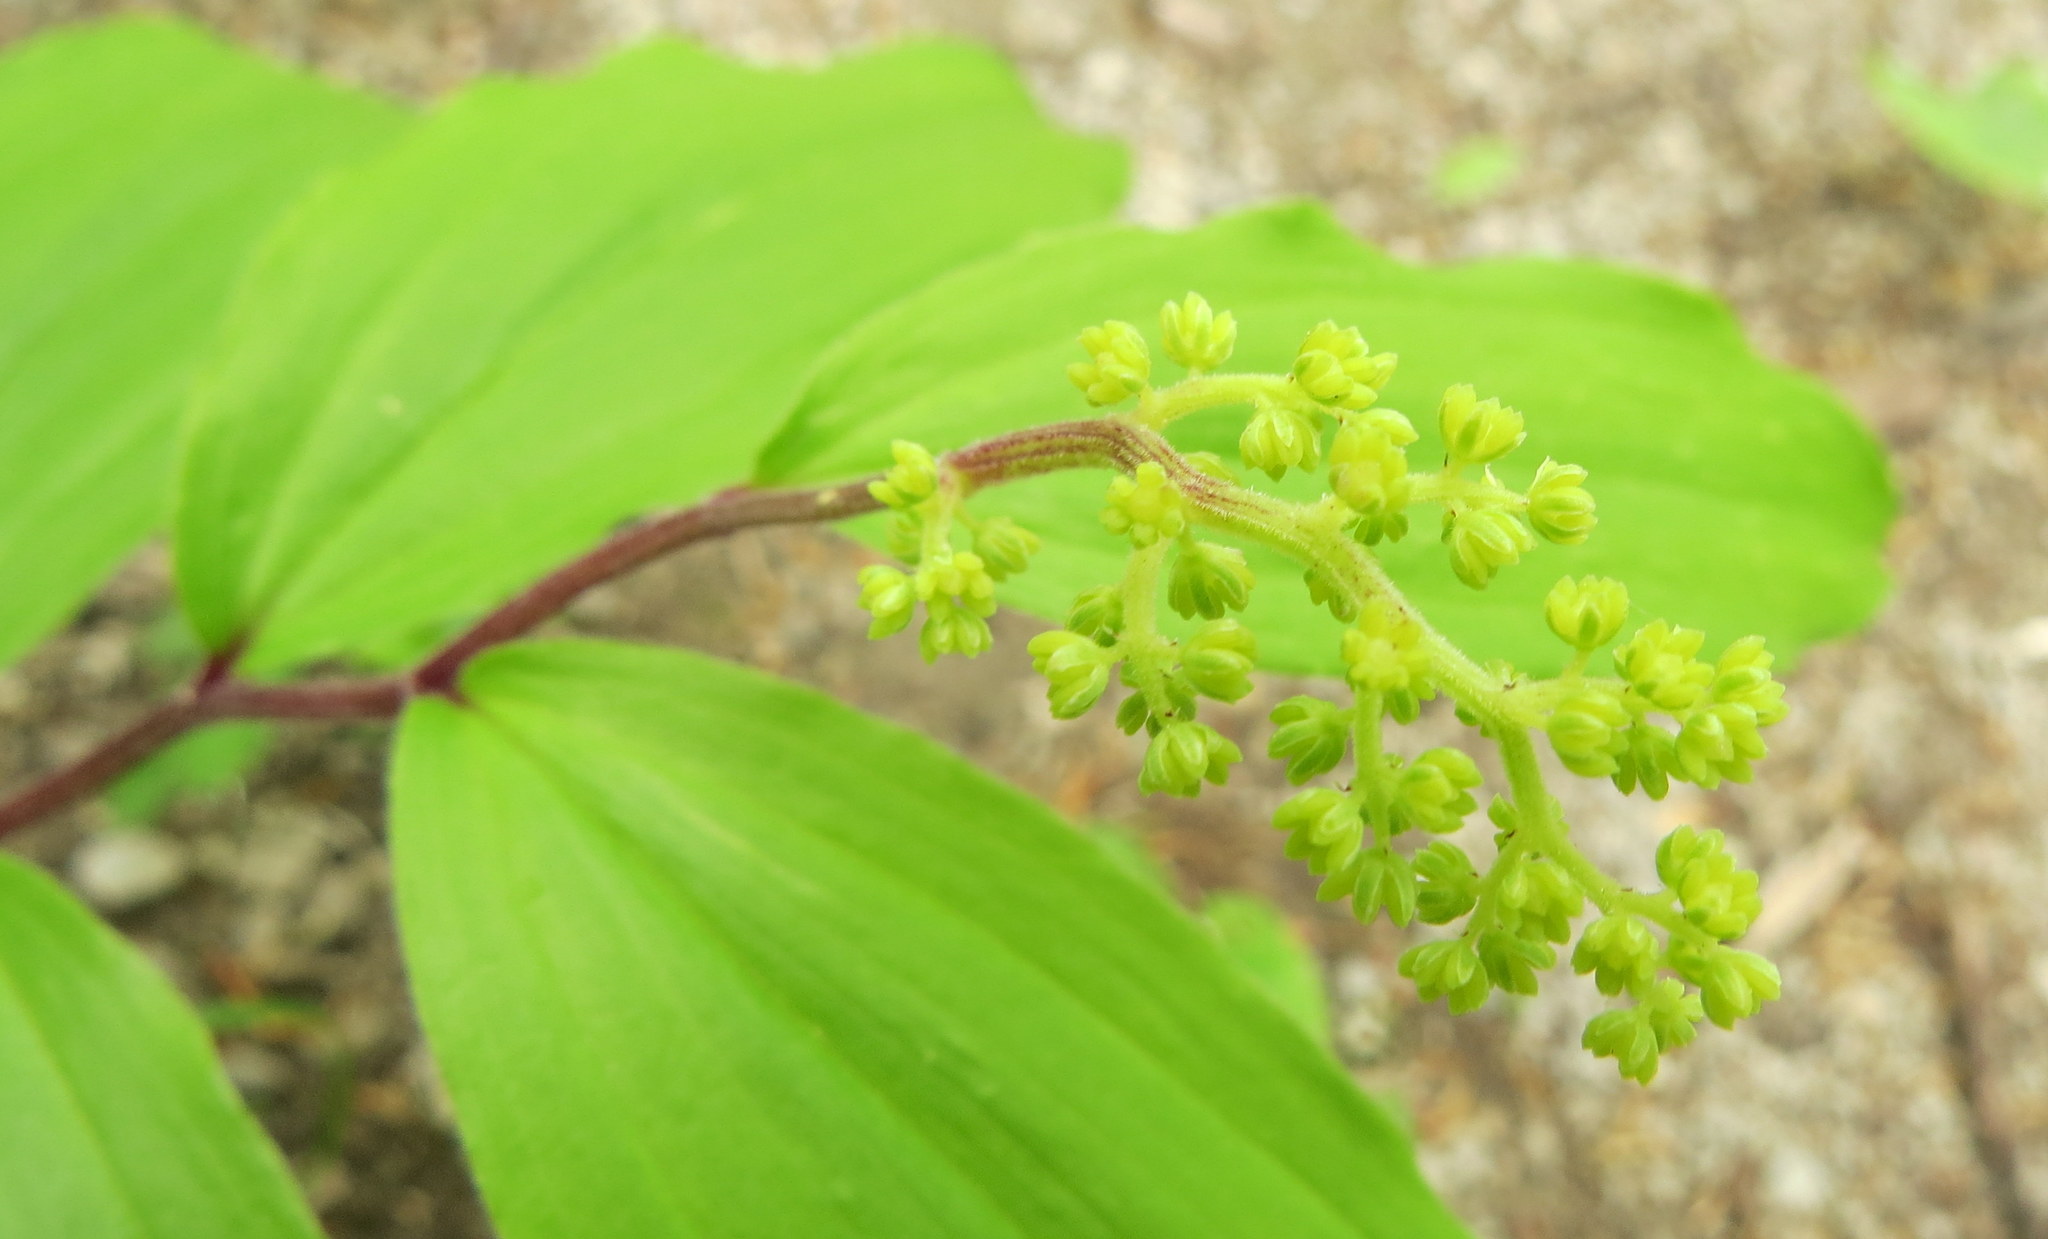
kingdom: Plantae
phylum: Tracheophyta
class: Liliopsida
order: Asparagales
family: Asparagaceae
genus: Maianthemum
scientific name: Maianthemum racemosum
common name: False spikenard
